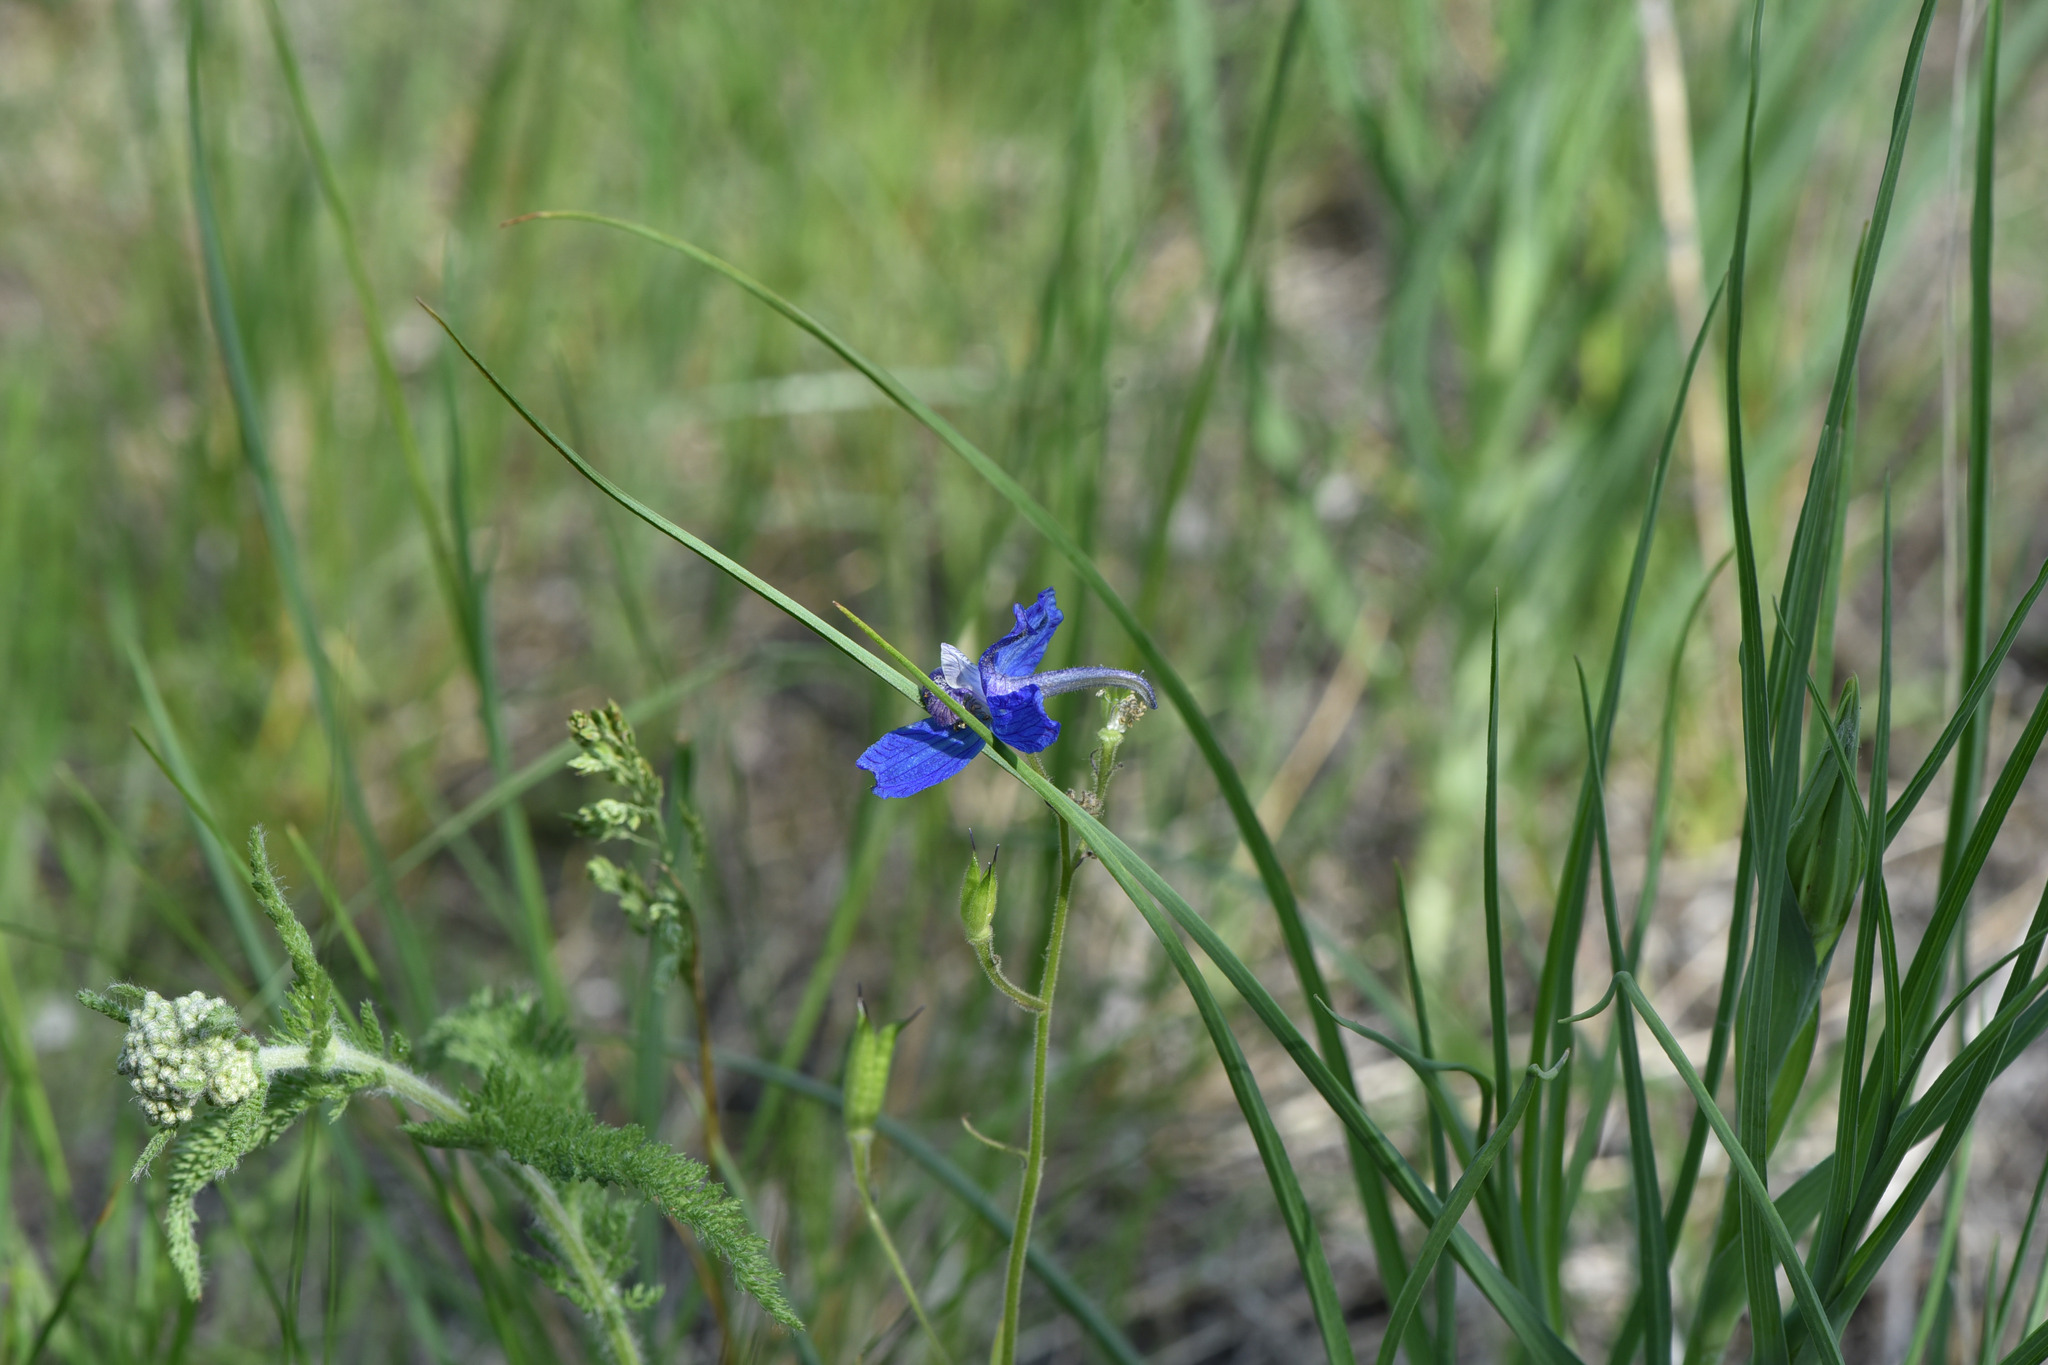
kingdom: Plantae
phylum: Tracheophyta
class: Magnoliopsida
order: Ranunculales
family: Ranunculaceae
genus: Delphinium
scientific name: Delphinium nuttallianum
